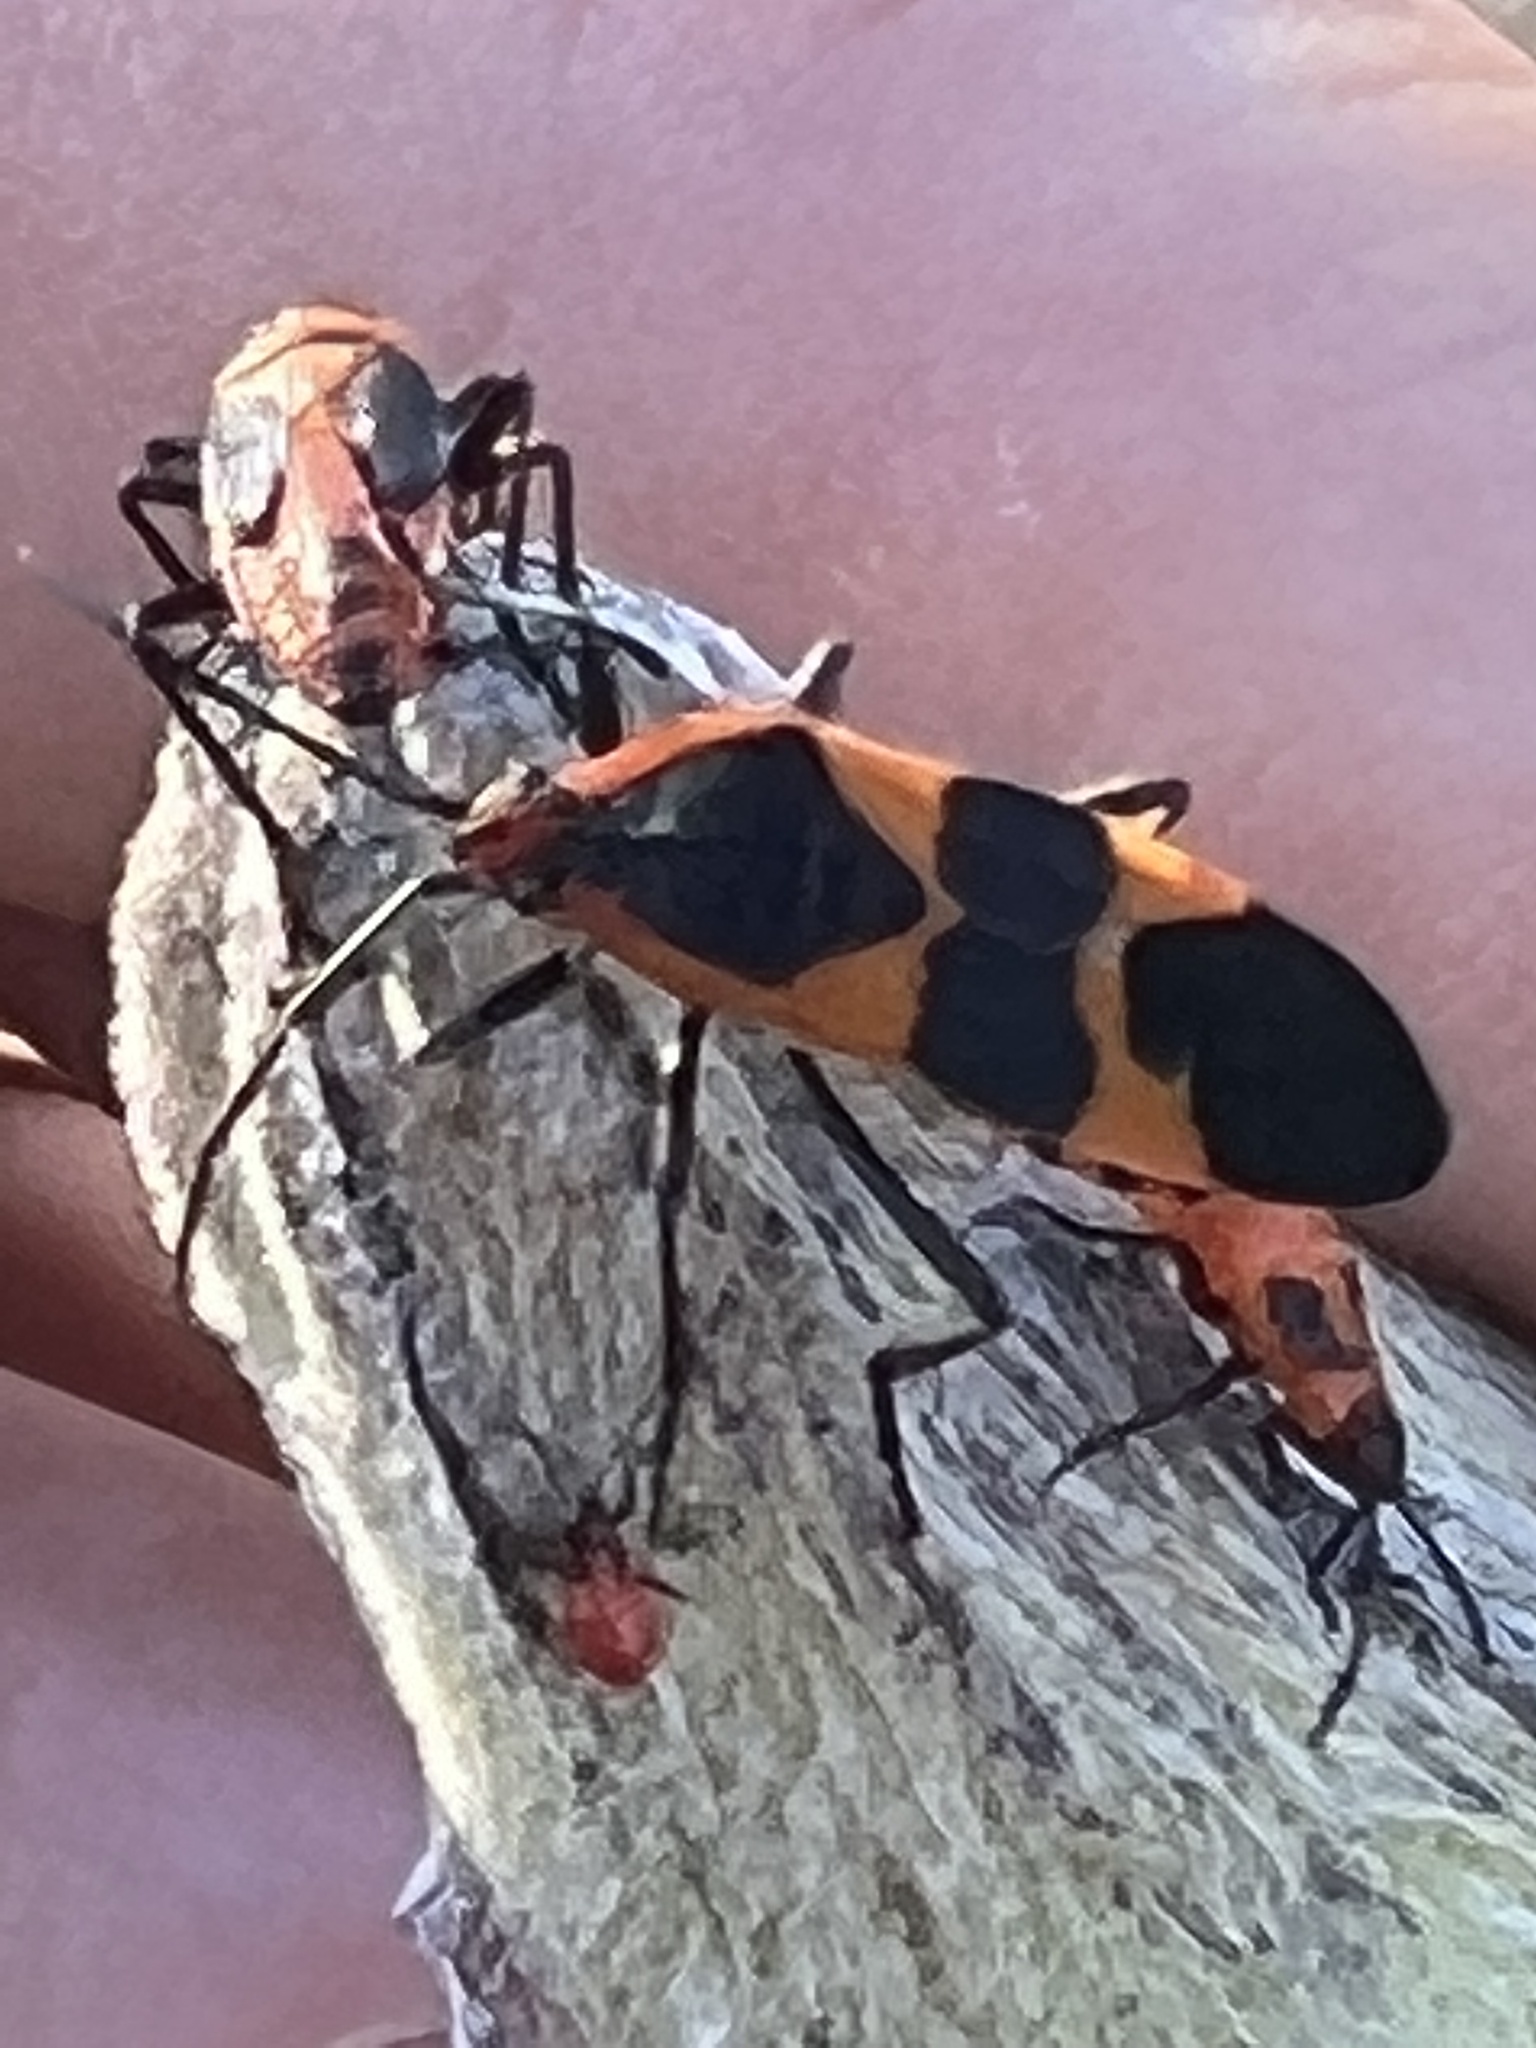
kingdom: Animalia
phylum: Arthropoda
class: Insecta
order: Hemiptera
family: Lygaeidae
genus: Oncopeltus
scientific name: Oncopeltus fasciatus
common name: Large milkweed bug
